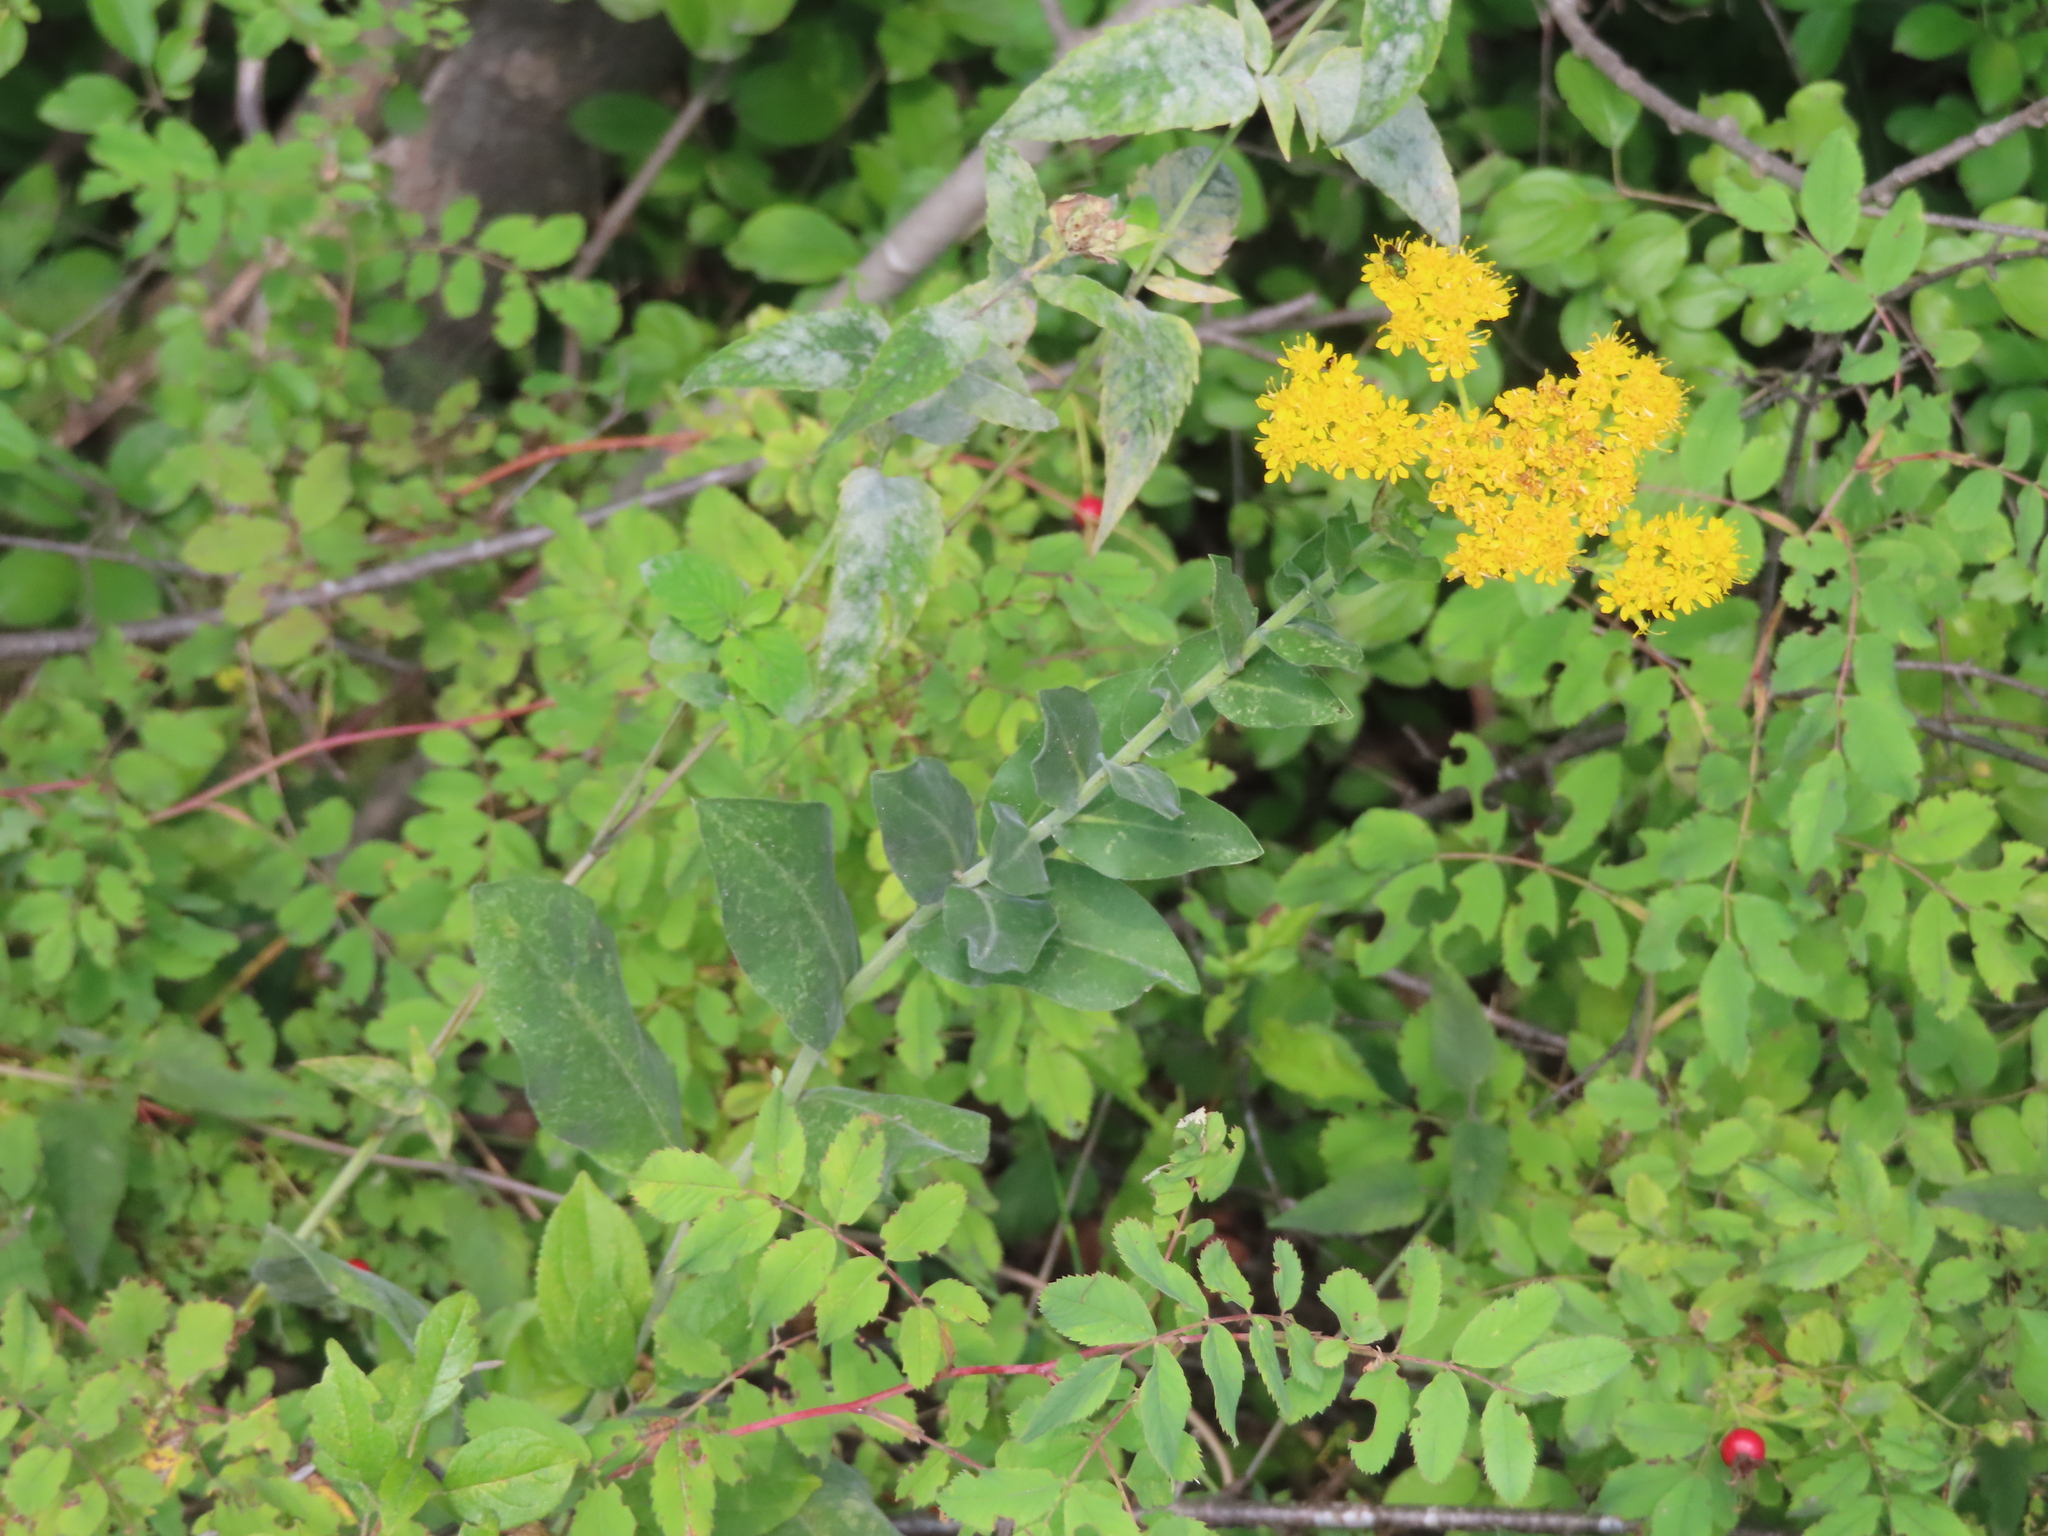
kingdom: Plantae
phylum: Tracheophyta
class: Magnoliopsida
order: Asterales
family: Asteraceae
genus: Solidago
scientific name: Solidago rigida
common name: Rigid goldenrod
